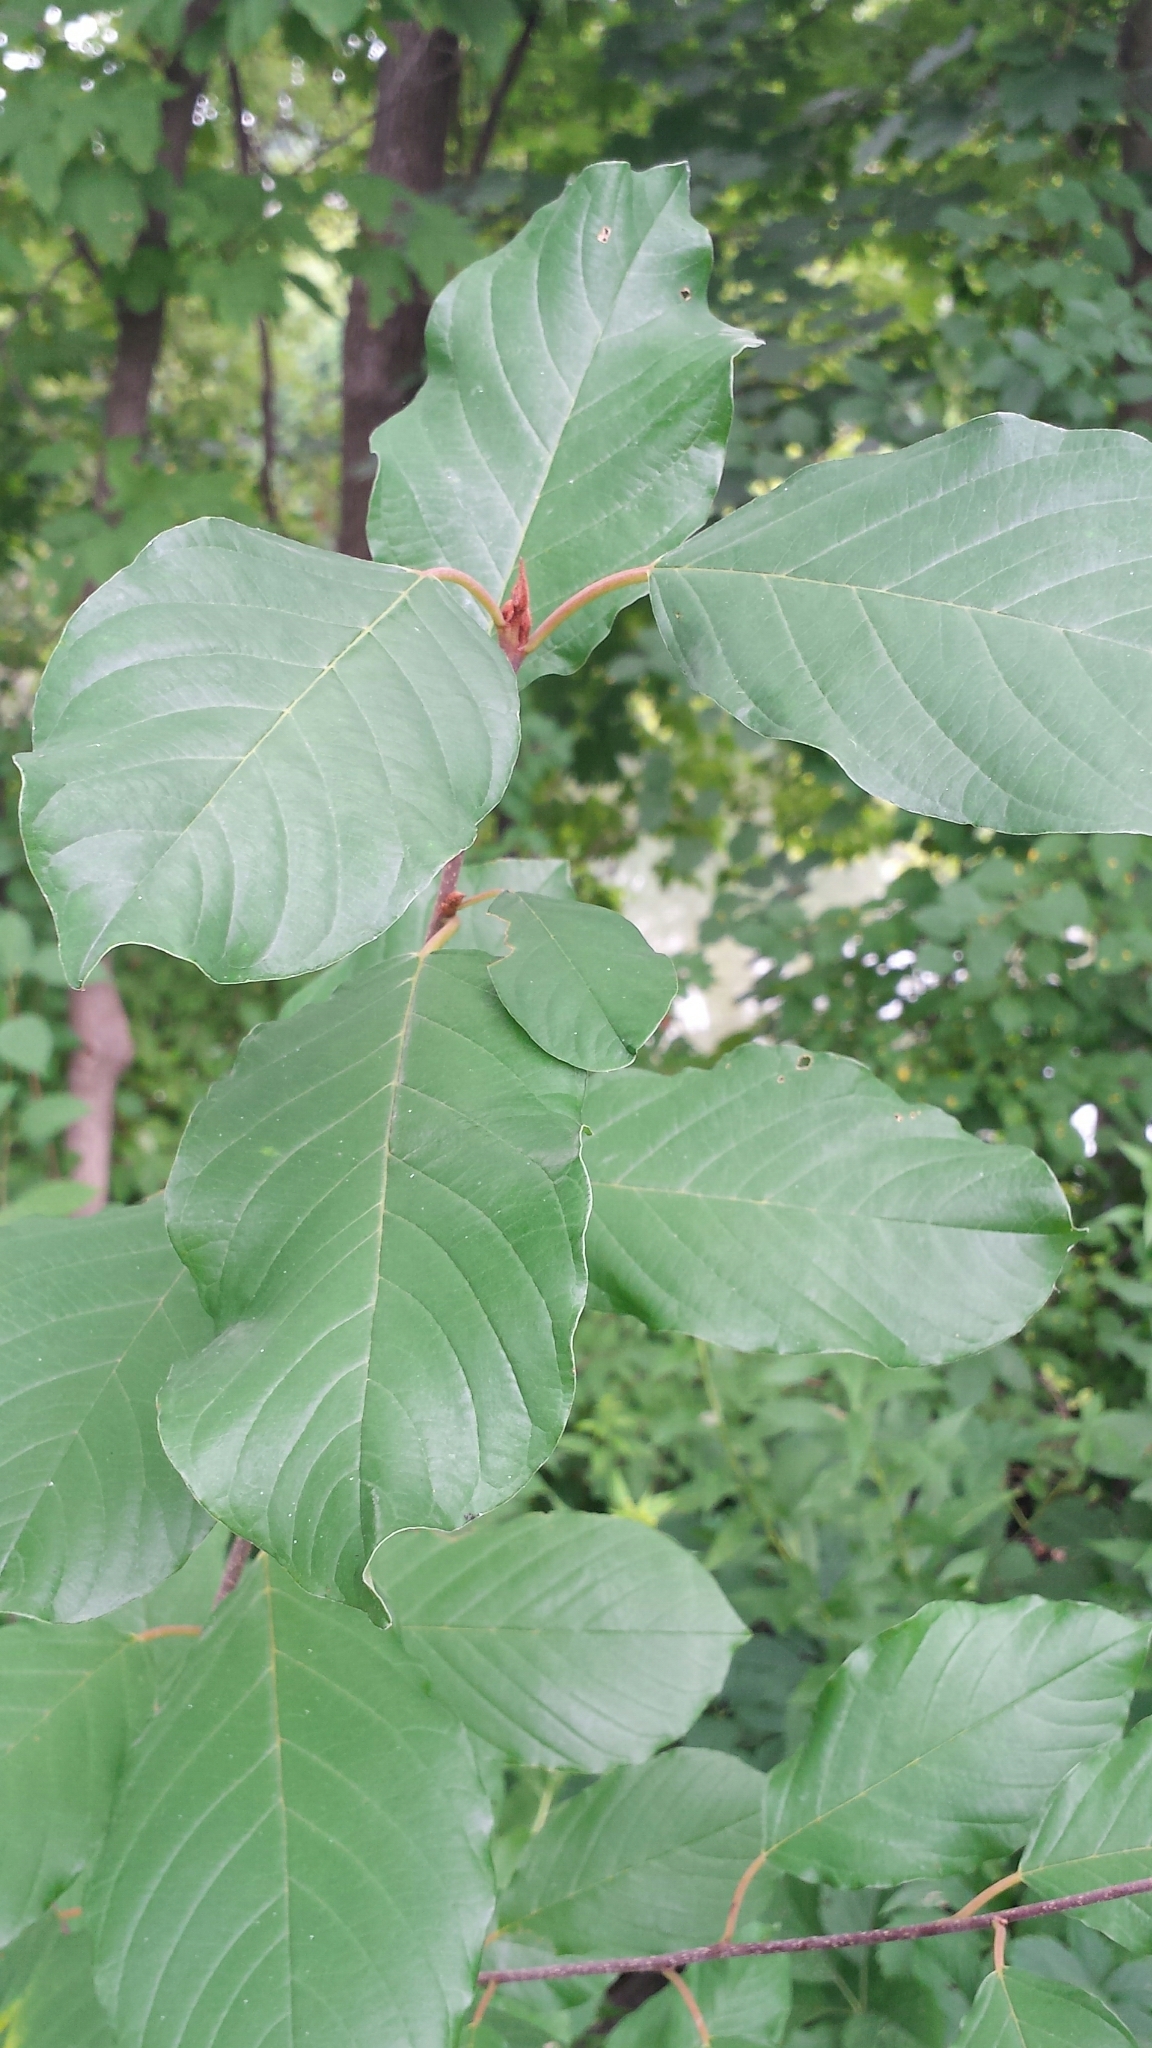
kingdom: Plantae
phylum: Tracheophyta
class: Magnoliopsida
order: Rosales
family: Rhamnaceae
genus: Frangula
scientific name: Frangula alnus
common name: Alder buckthorn
